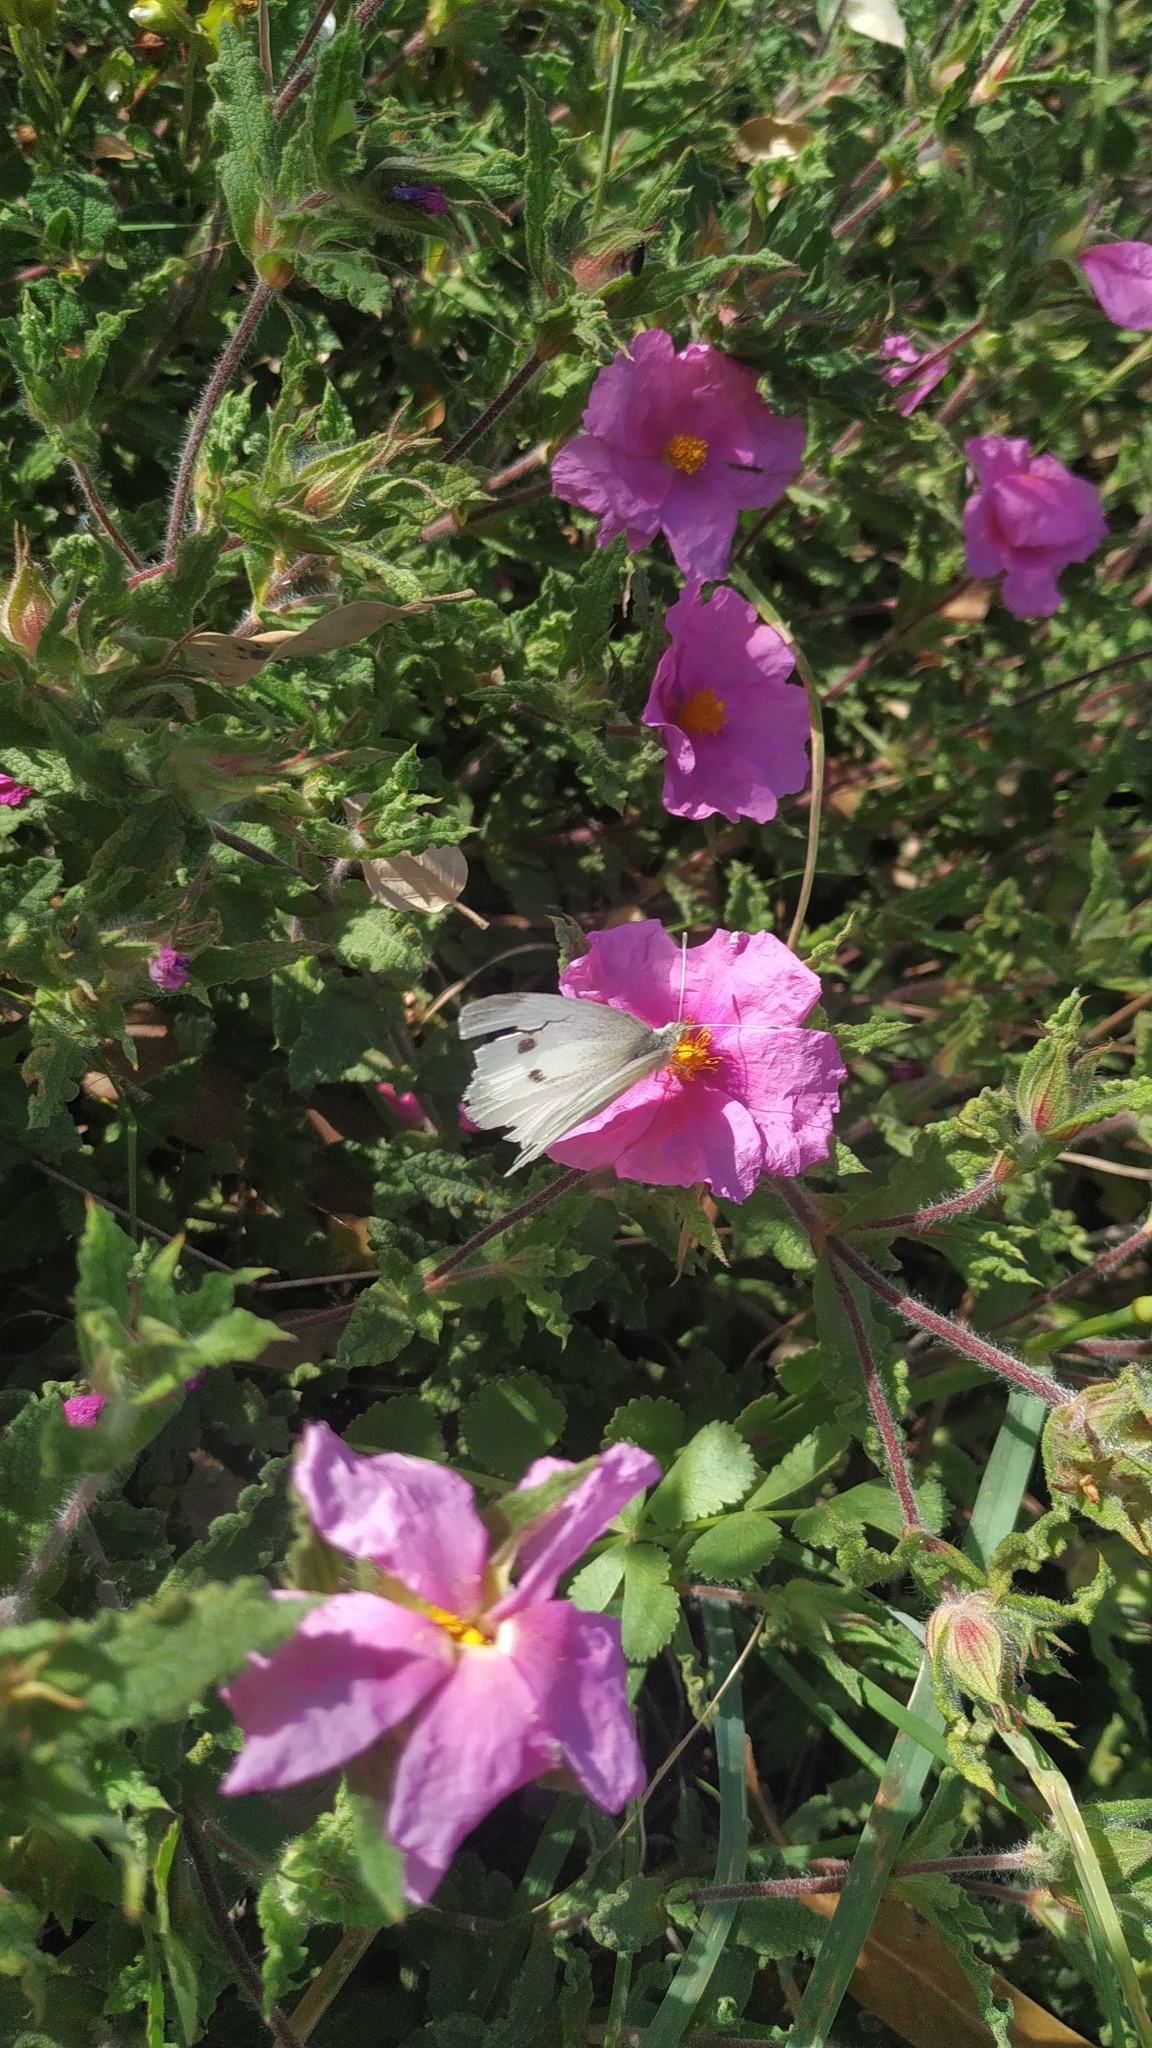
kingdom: Animalia
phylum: Arthropoda
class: Insecta
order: Lepidoptera
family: Pieridae
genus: Pieris
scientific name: Pieris rapae
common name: Small white
